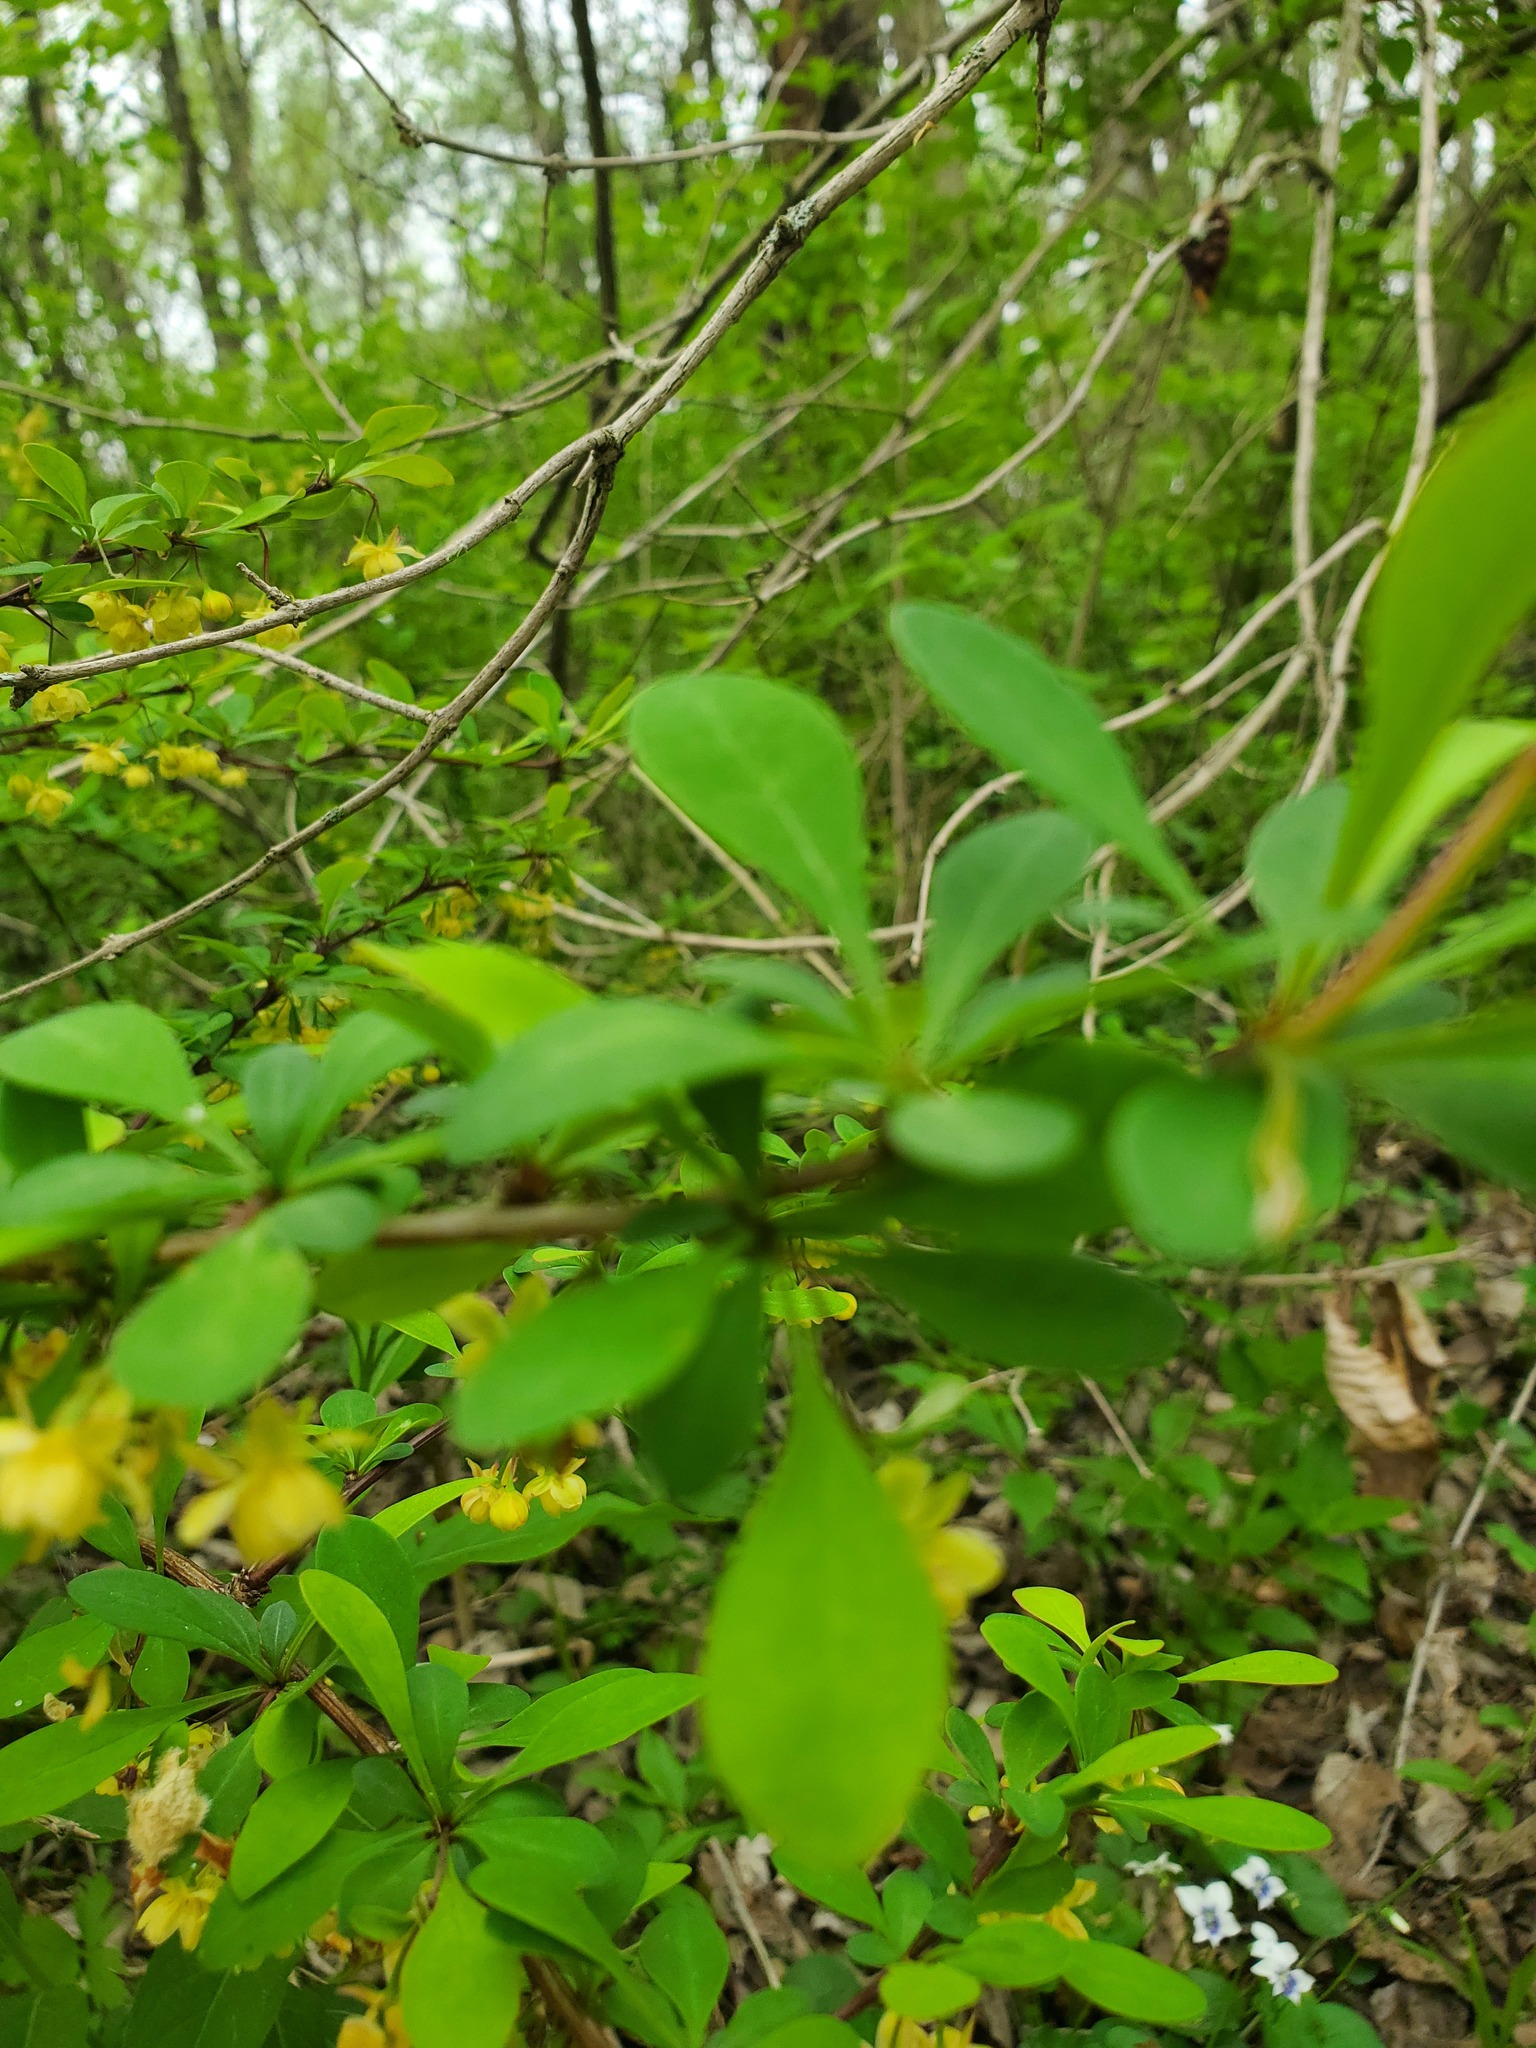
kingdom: Plantae
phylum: Tracheophyta
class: Magnoliopsida
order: Ranunculales
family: Berberidaceae
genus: Berberis
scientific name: Berberis thunbergii
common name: Japanese barberry
